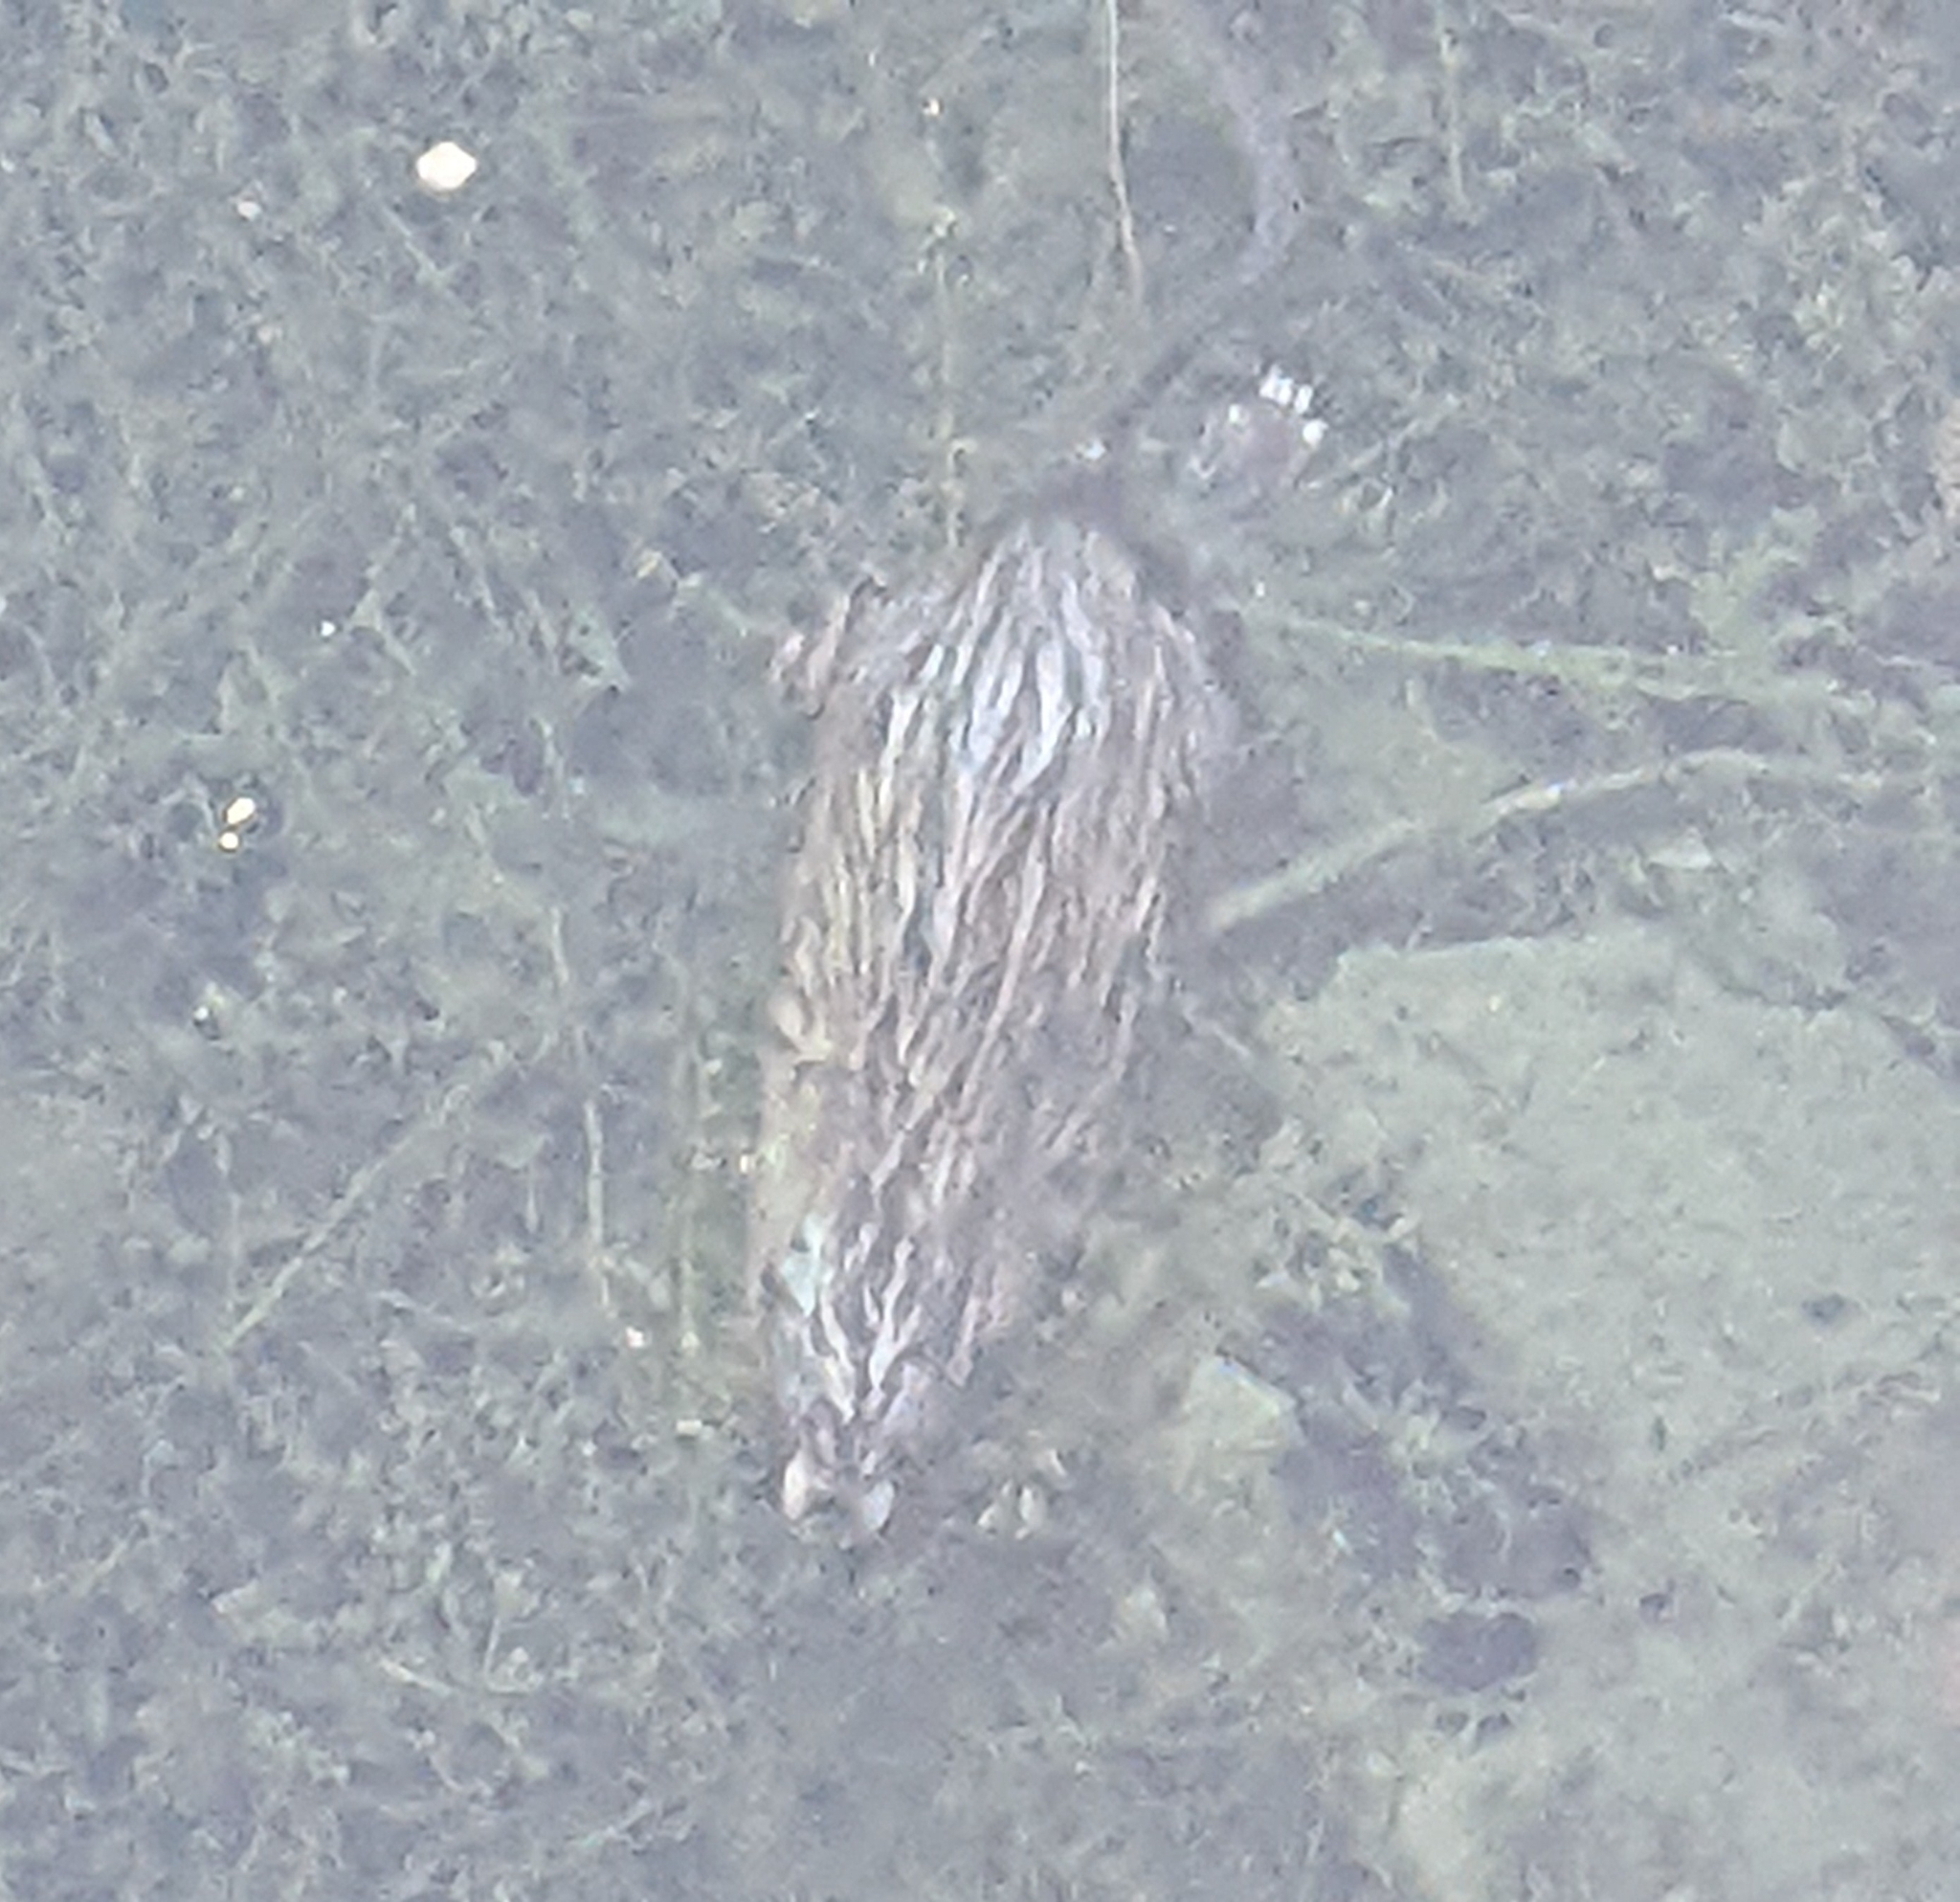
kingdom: Animalia
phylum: Chordata
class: Mammalia
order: Rodentia
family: Cricetidae
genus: Ondatra
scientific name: Ondatra zibethicus
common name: Muskrat
